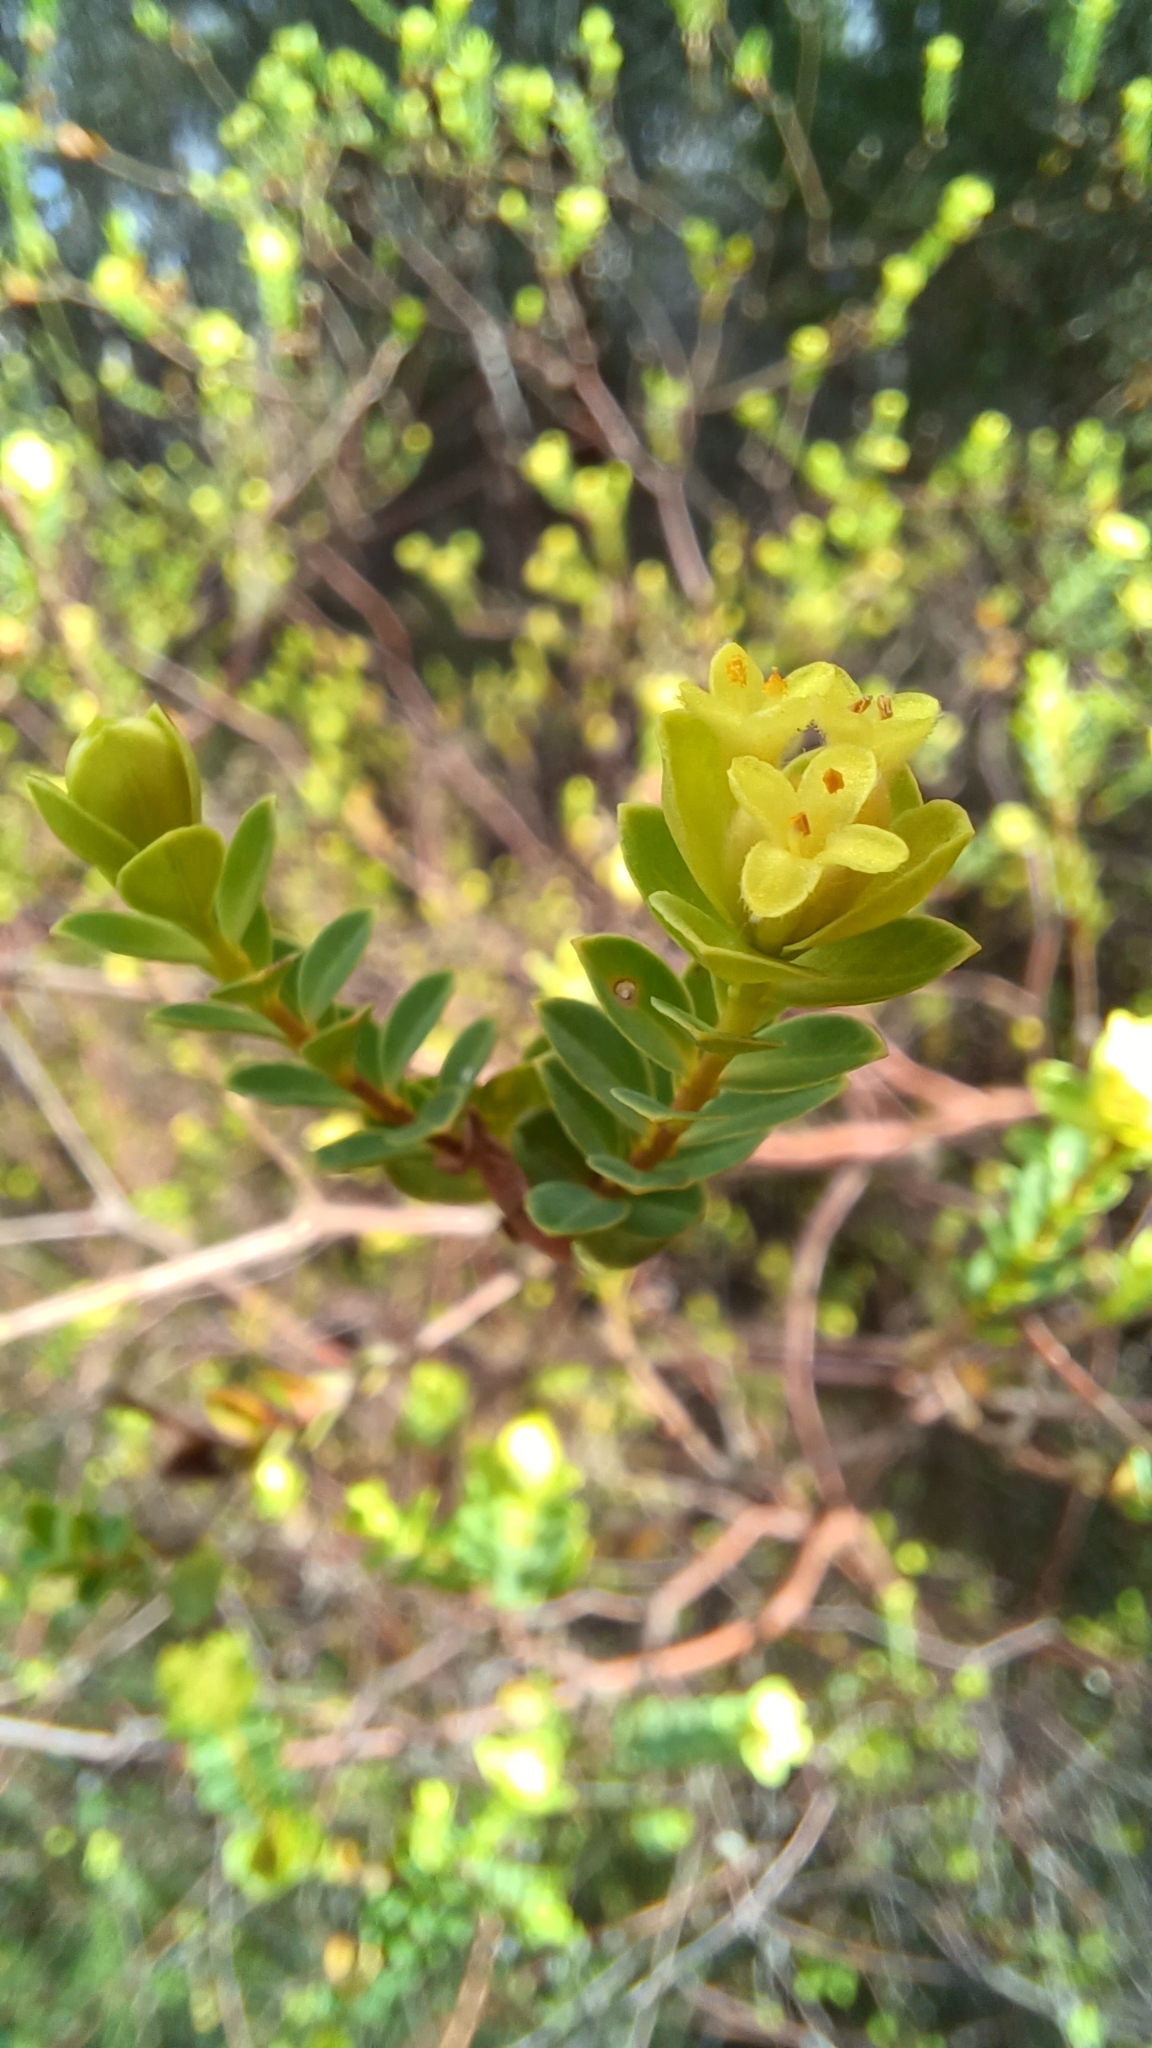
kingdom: Plantae
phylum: Tracheophyta
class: Magnoliopsida
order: Malvales
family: Thymelaeaceae
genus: Pimelea
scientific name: Pimelea flava
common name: Yellow riceflower
